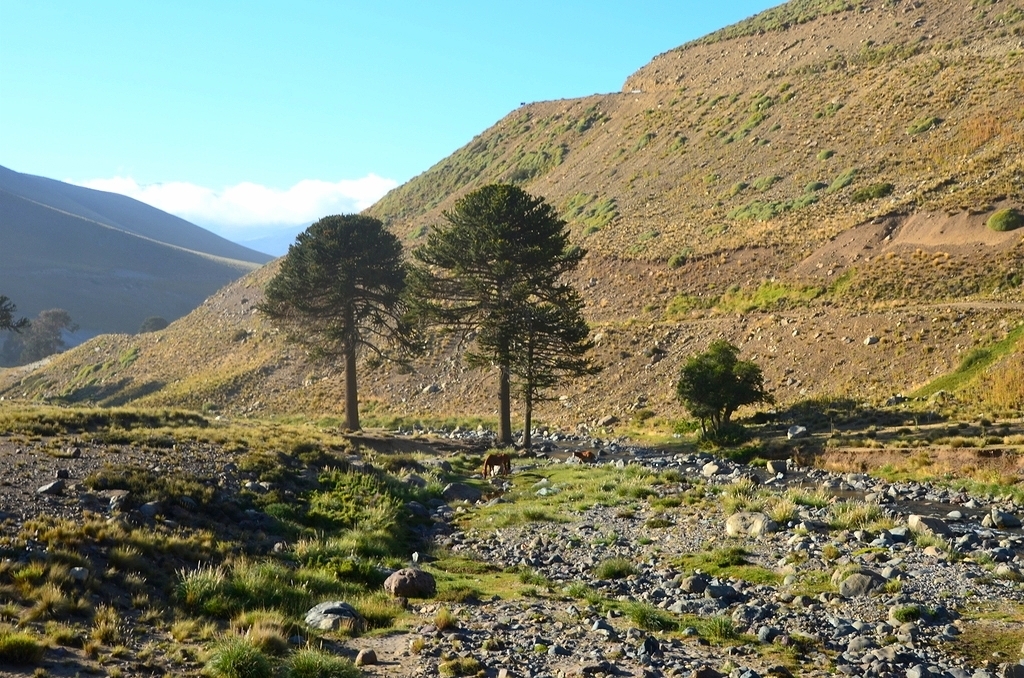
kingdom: Plantae
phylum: Tracheophyta
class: Pinopsida
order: Pinales
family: Araucariaceae
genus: Araucaria
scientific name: Araucaria araucana
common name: Monkey-puzzle
